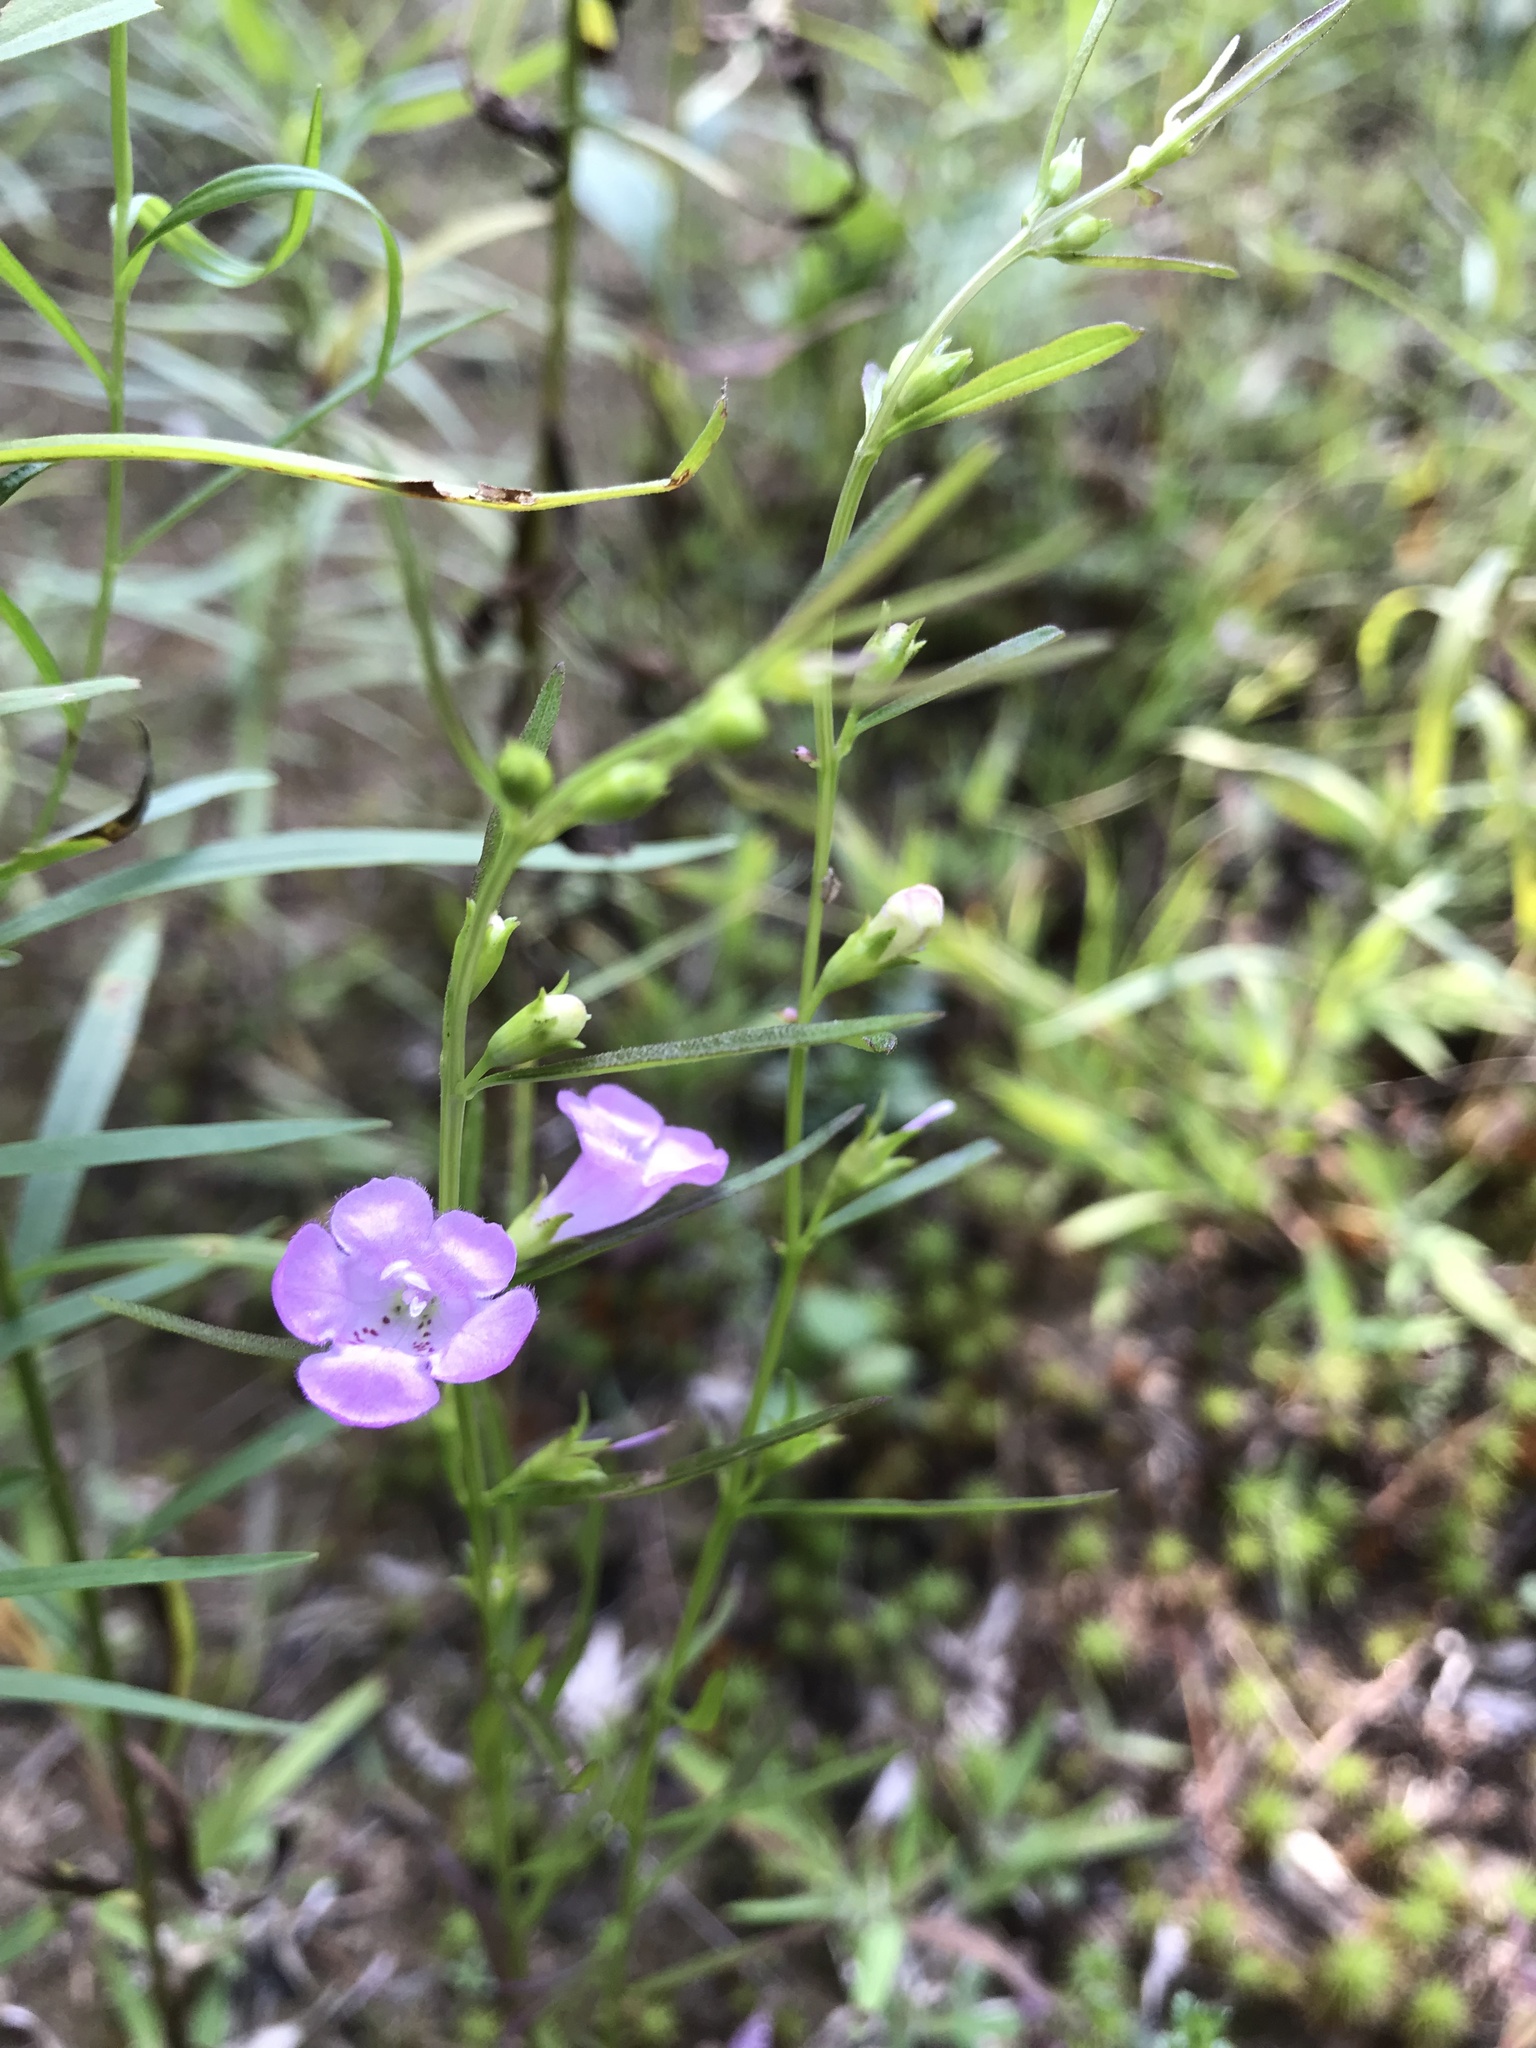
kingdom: Plantae
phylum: Tracheophyta
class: Magnoliopsida
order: Lamiales
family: Orobanchaceae
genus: Agalinis
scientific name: Agalinis purpurea
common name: Purple false foxglove
